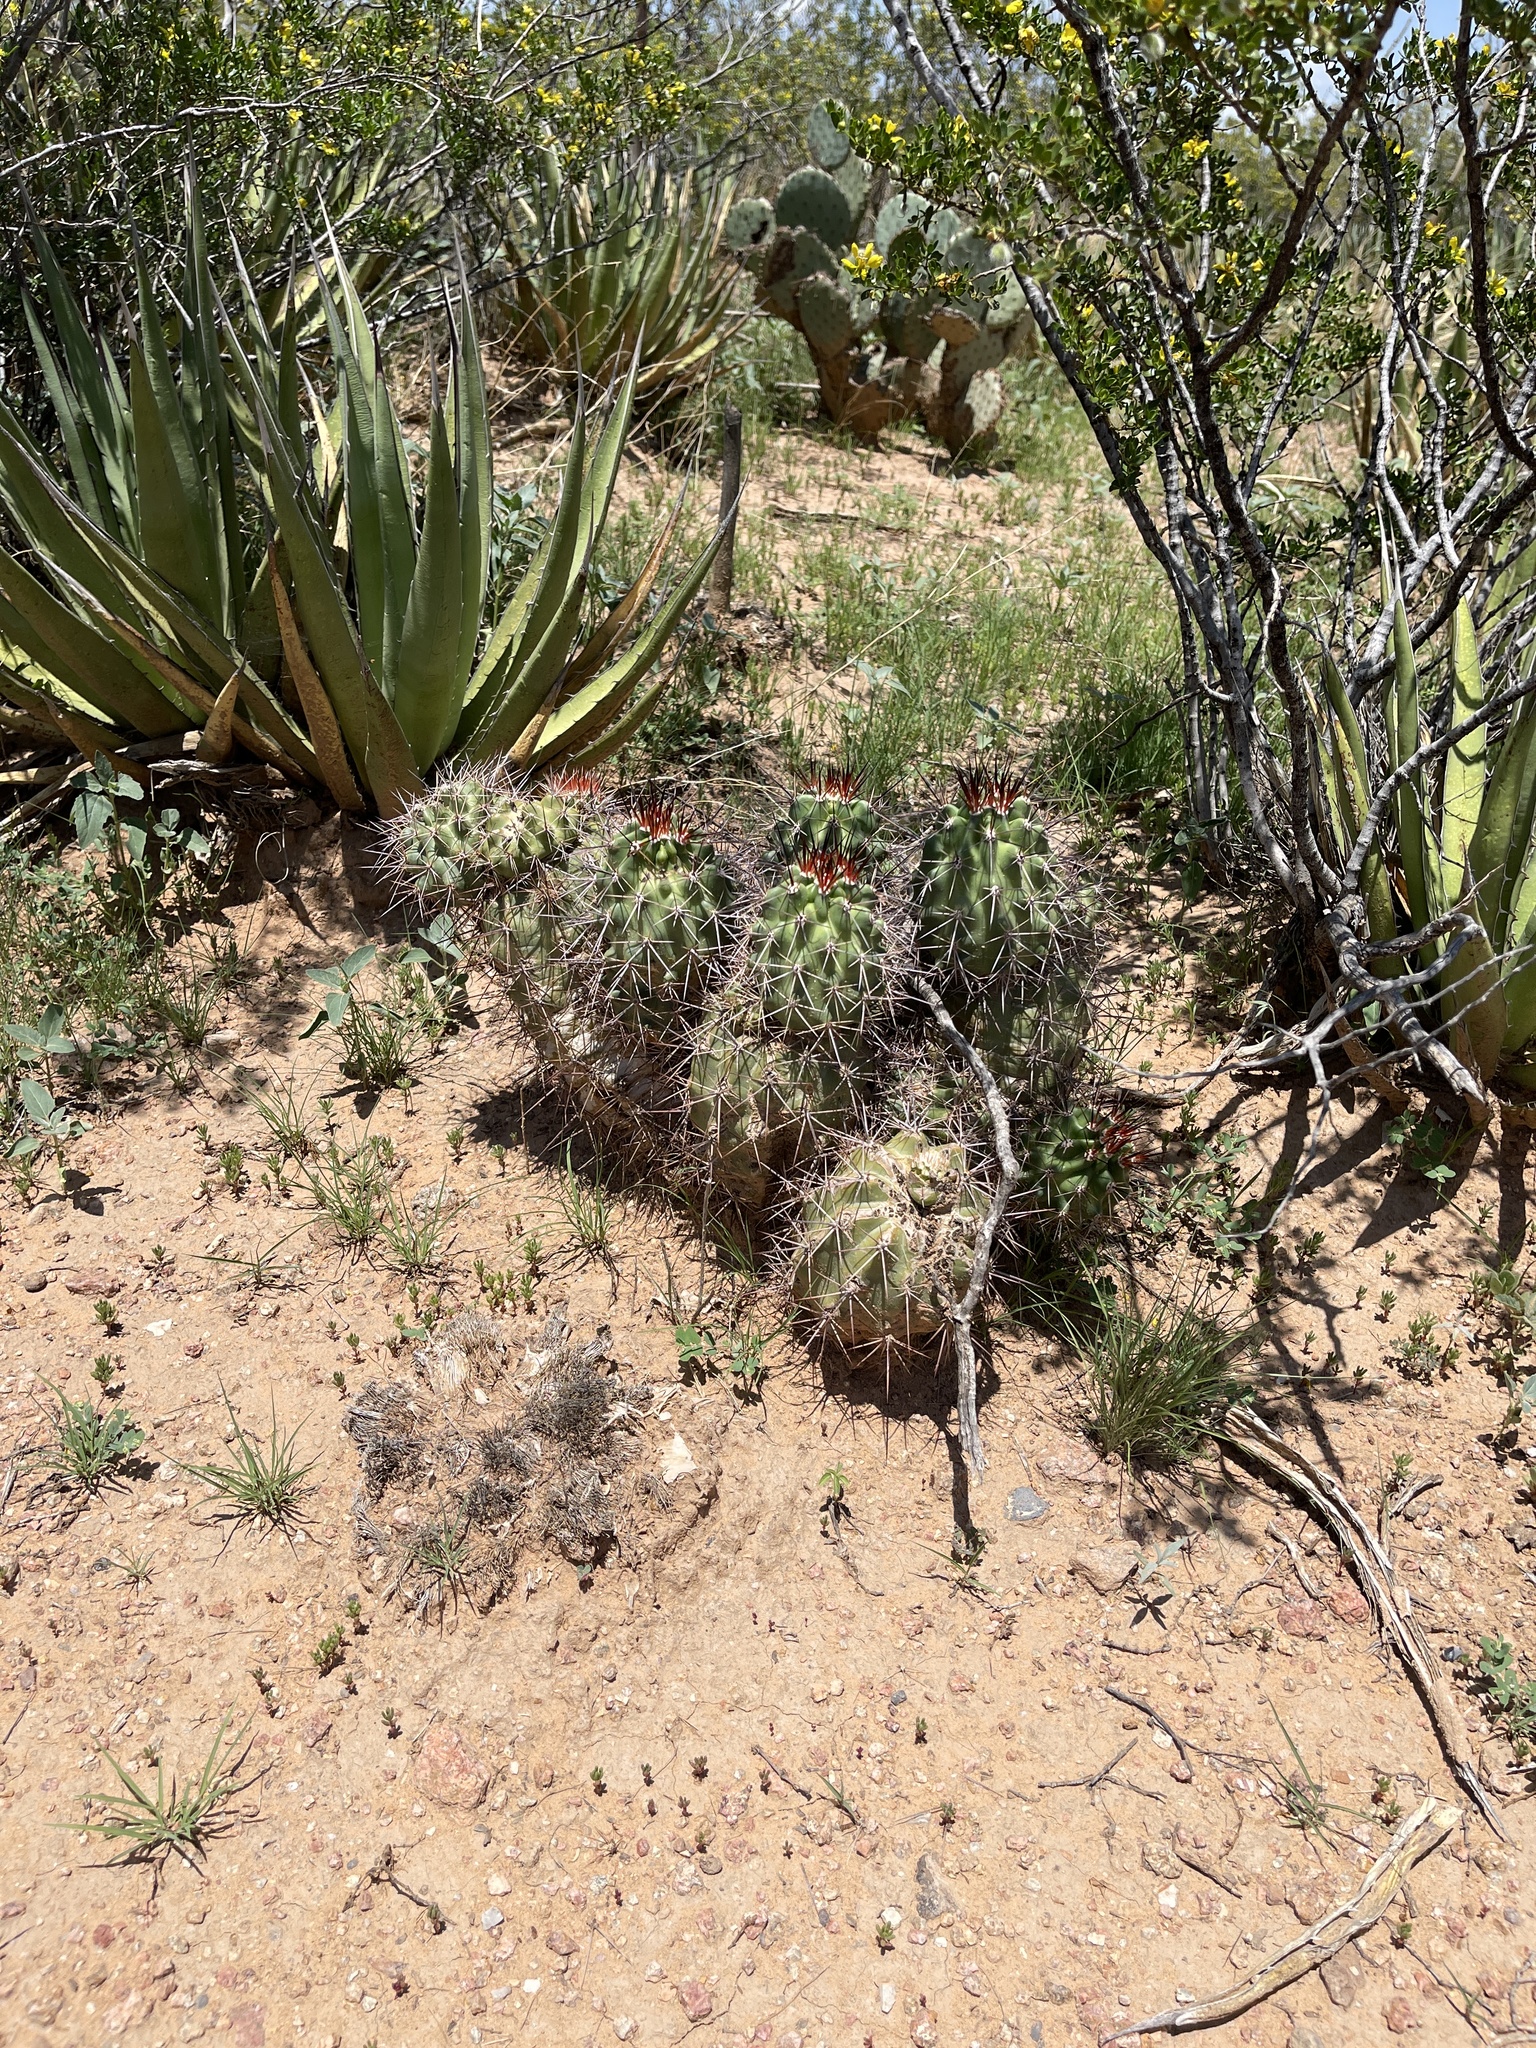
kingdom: Plantae
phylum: Tracheophyta
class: Magnoliopsida
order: Caryophyllales
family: Cactaceae
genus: Echinocereus
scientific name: Echinocereus coccineus
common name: Scarlet hedgehog cactus
